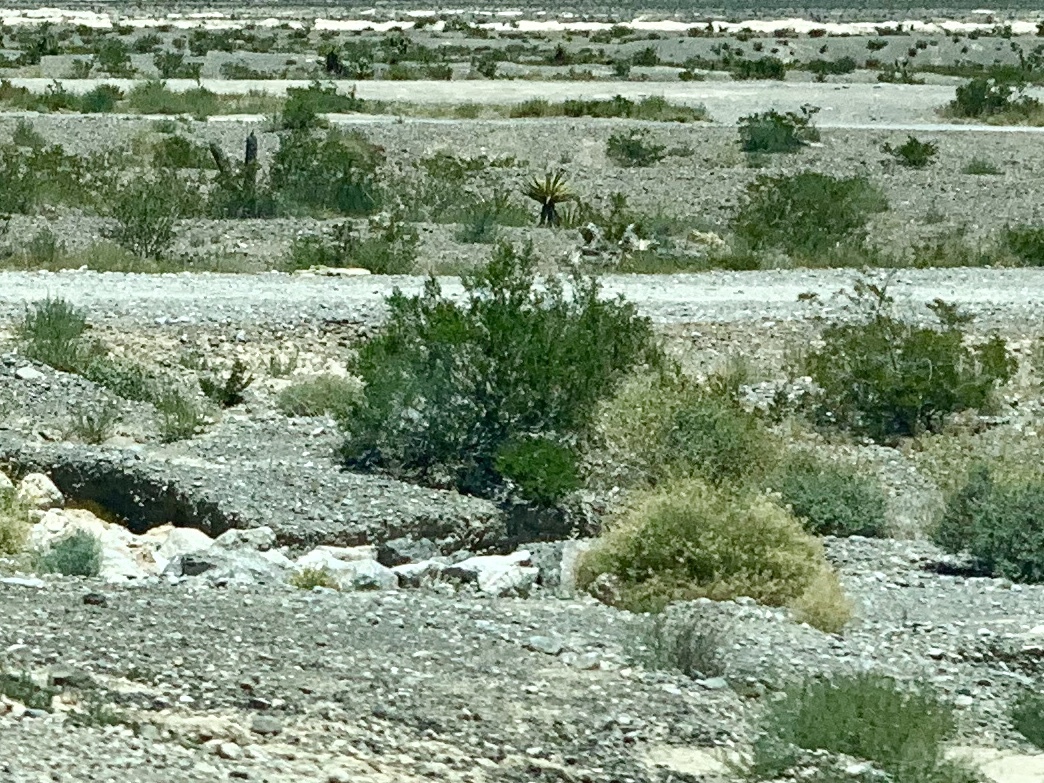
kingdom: Plantae
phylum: Tracheophyta
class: Magnoliopsida
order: Zygophyllales
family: Zygophyllaceae
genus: Larrea
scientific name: Larrea tridentata
